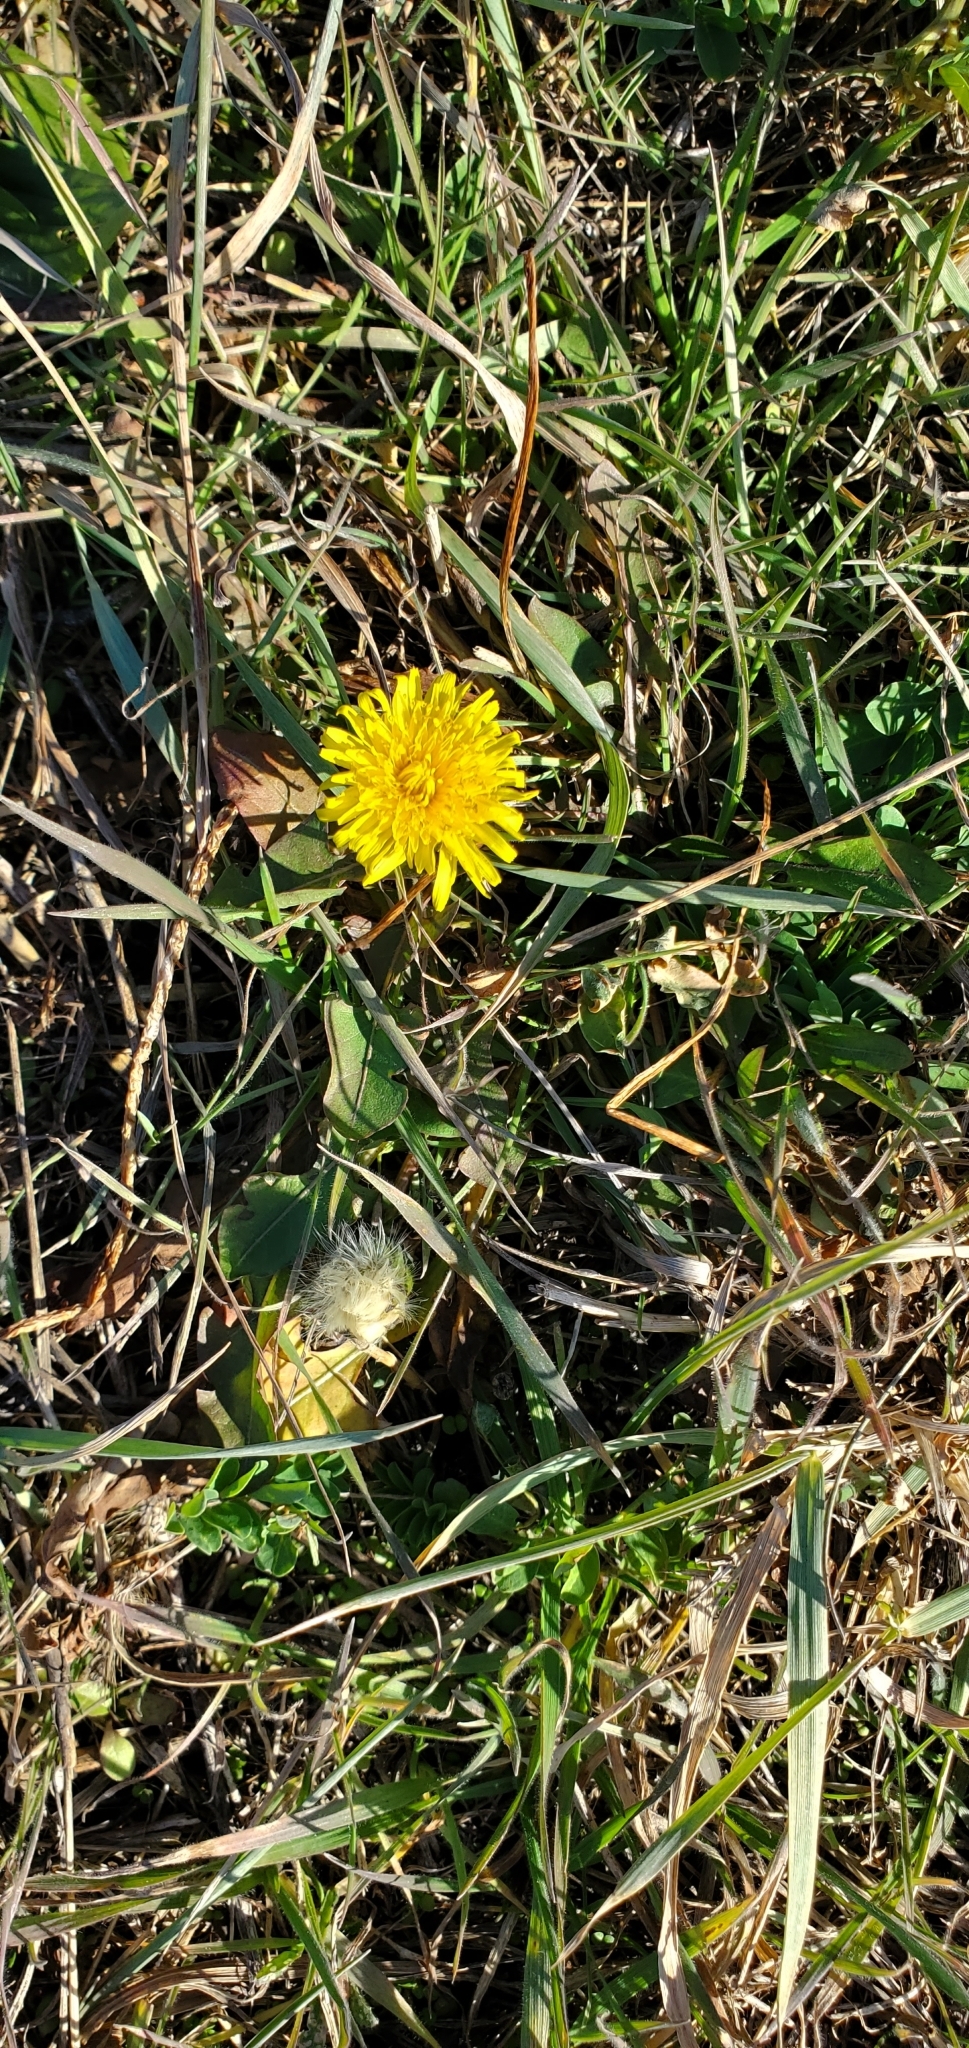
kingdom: Plantae
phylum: Tracheophyta
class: Magnoliopsida
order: Asterales
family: Asteraceae
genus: Taraxacum
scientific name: Taraxacum officinale
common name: Common dandelion
